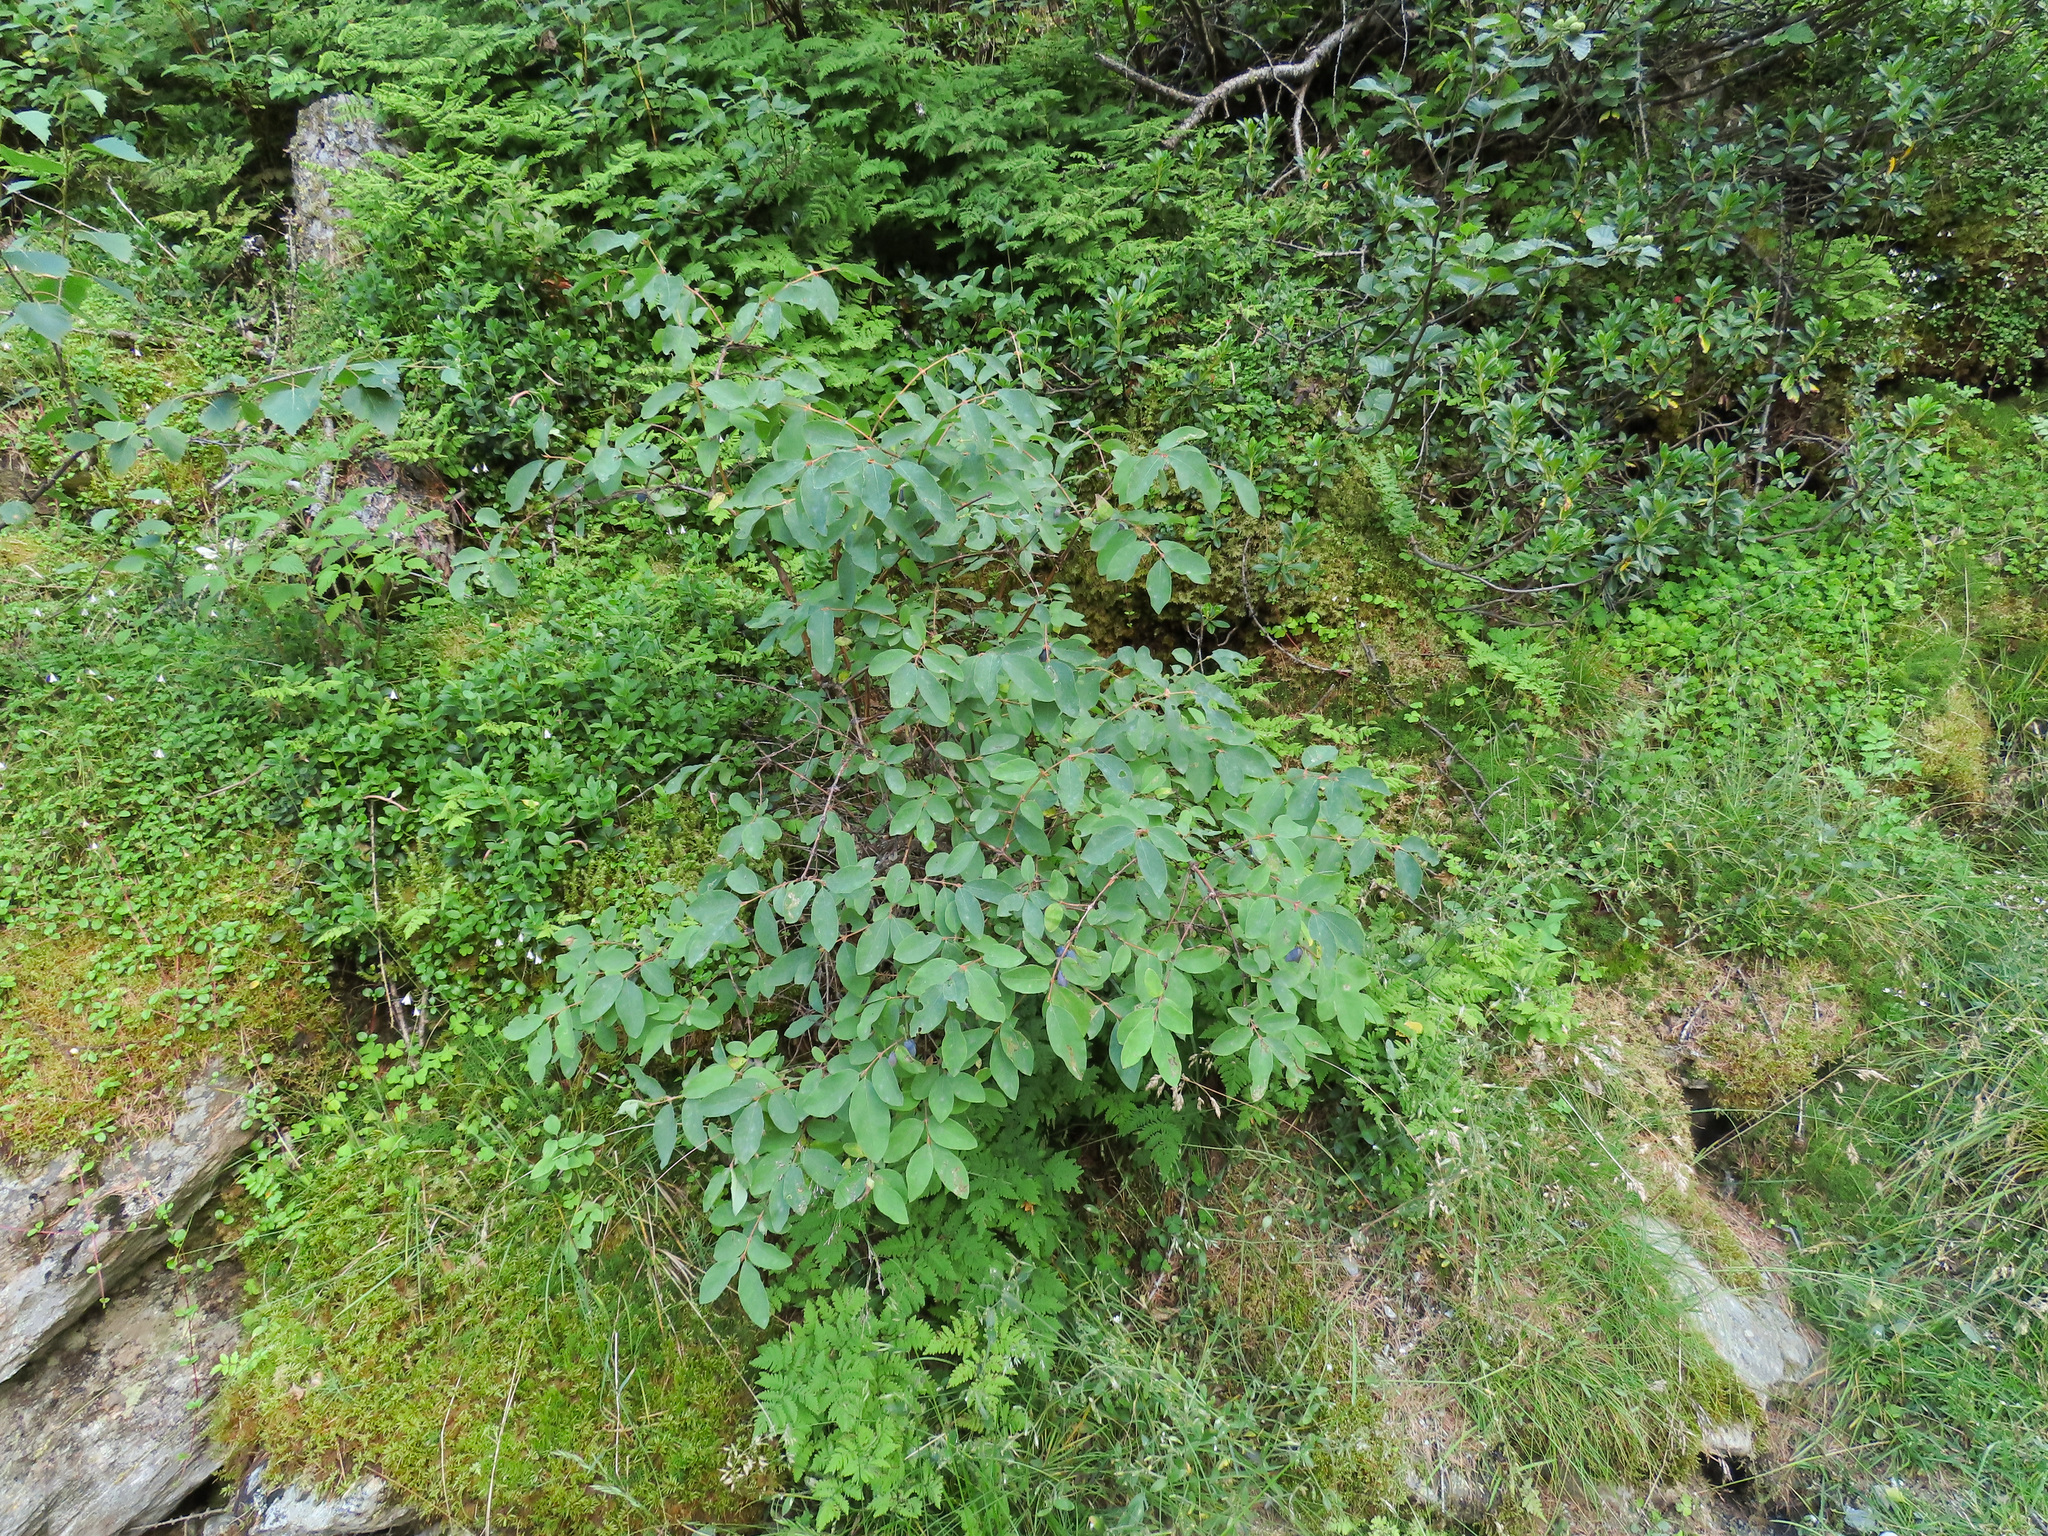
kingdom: Plantae
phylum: Tracheophyta
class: Magnoliopsida
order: Dipsacales
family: Caprifoliaceae
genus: Lonicera
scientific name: Lonicera caerulea
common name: Blue honeysuckle
